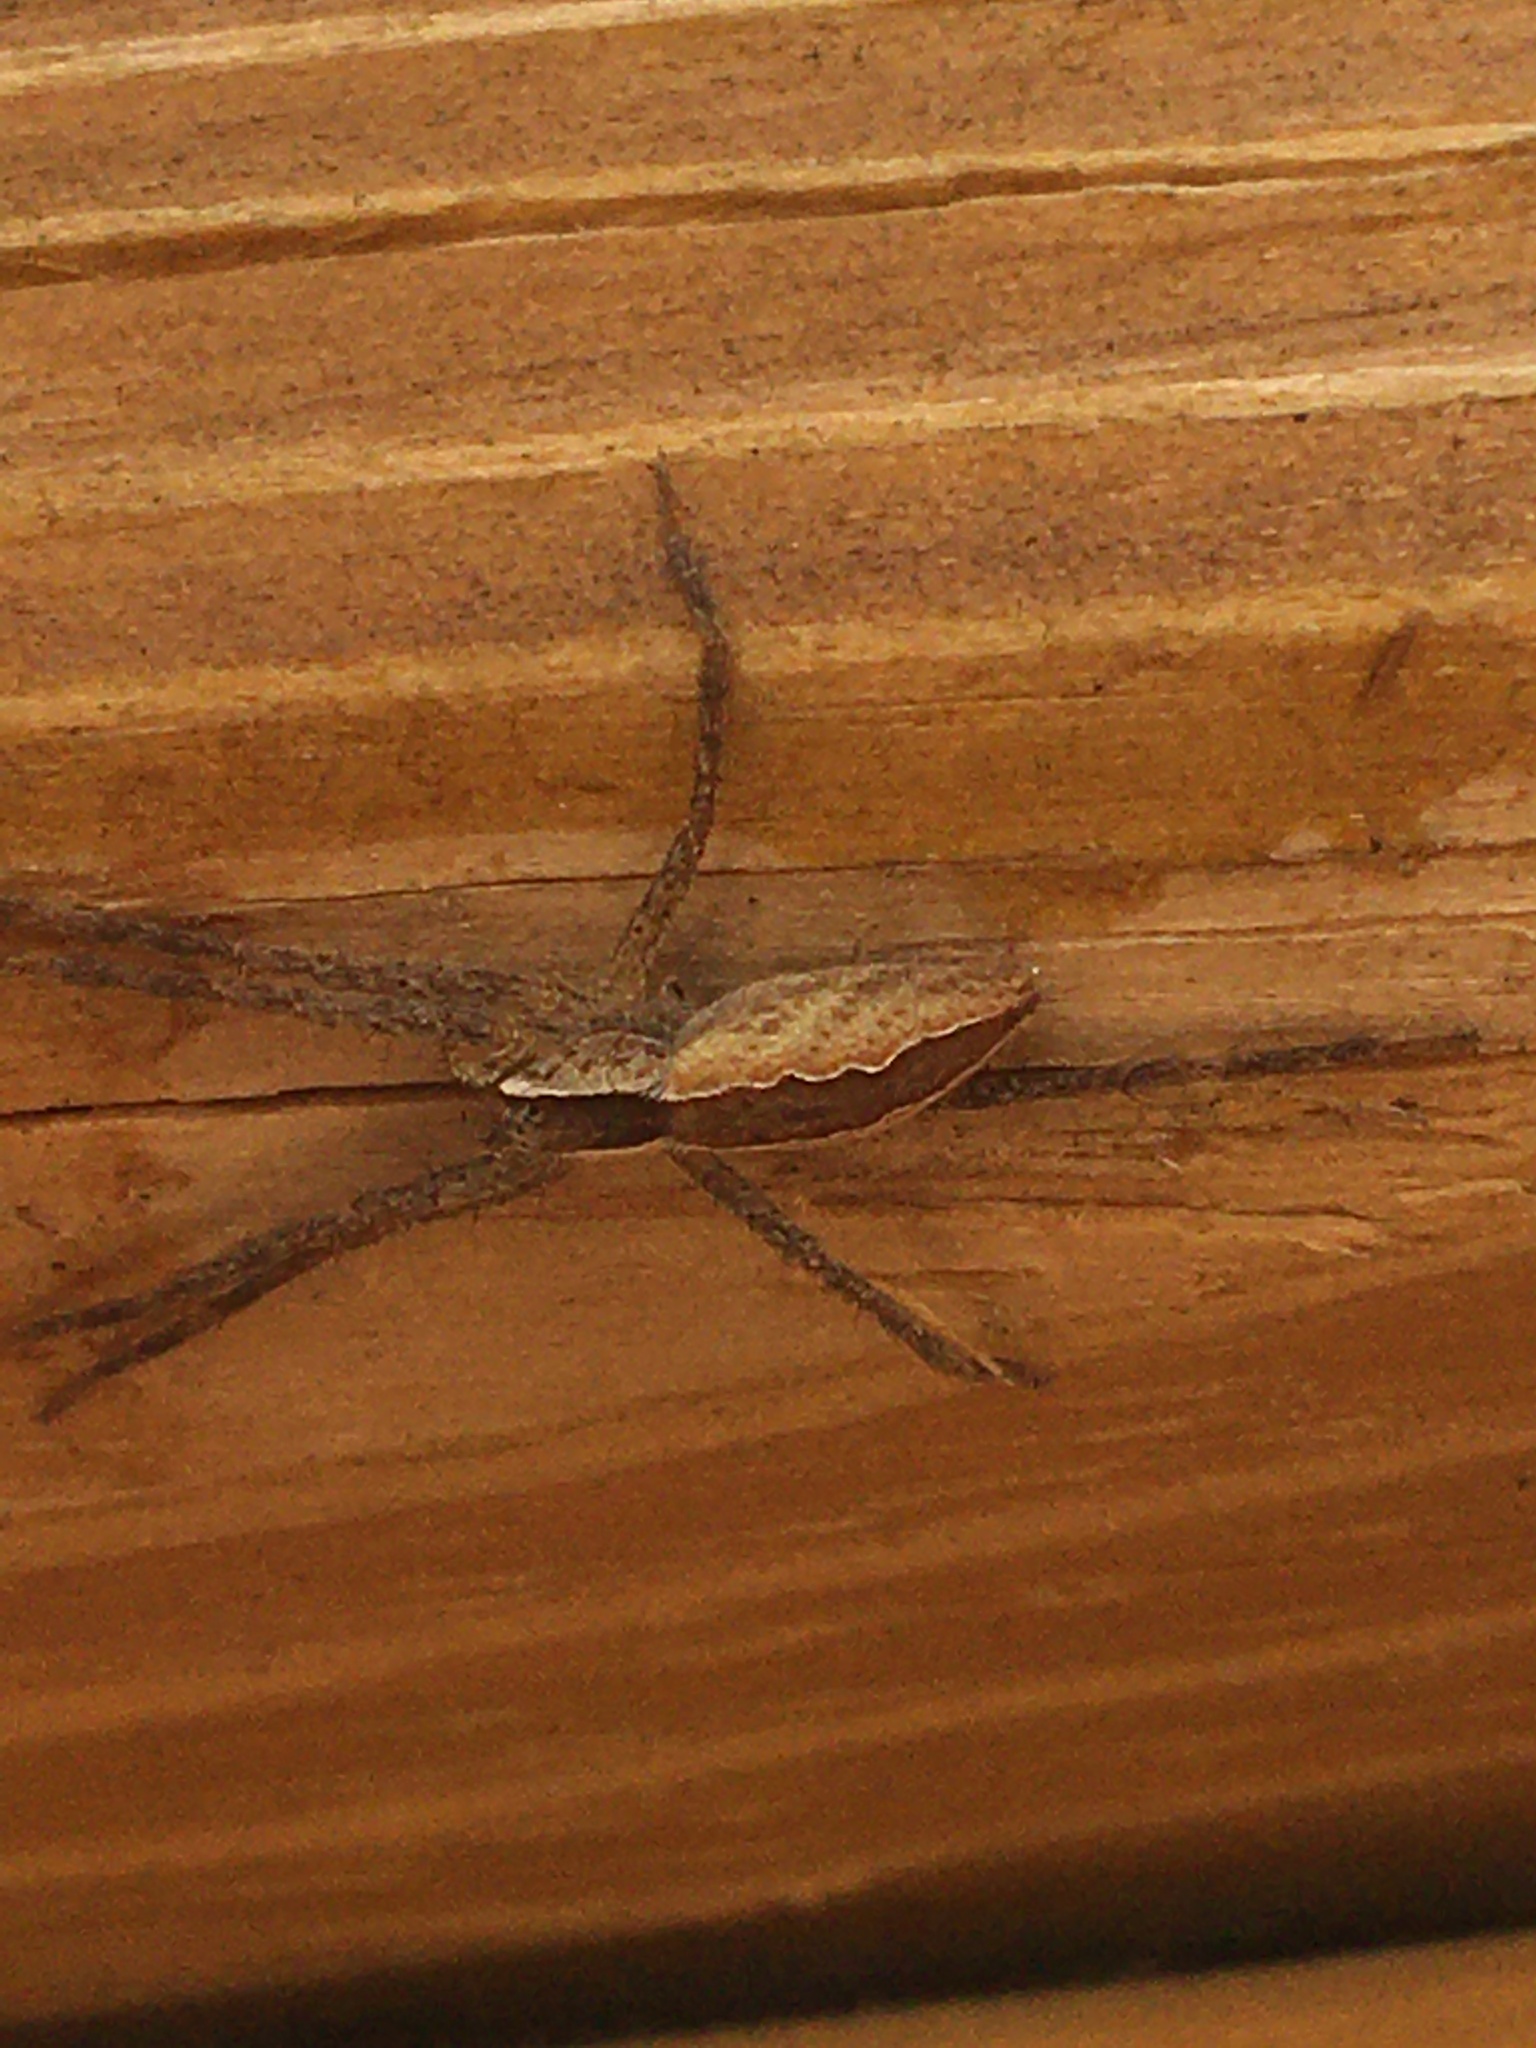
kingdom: Animalia
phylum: Arthropoda
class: Arachnida
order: Araneae
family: Pisauridae
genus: Pisaurina
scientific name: Pisaurina mira
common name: American nursery web spider
